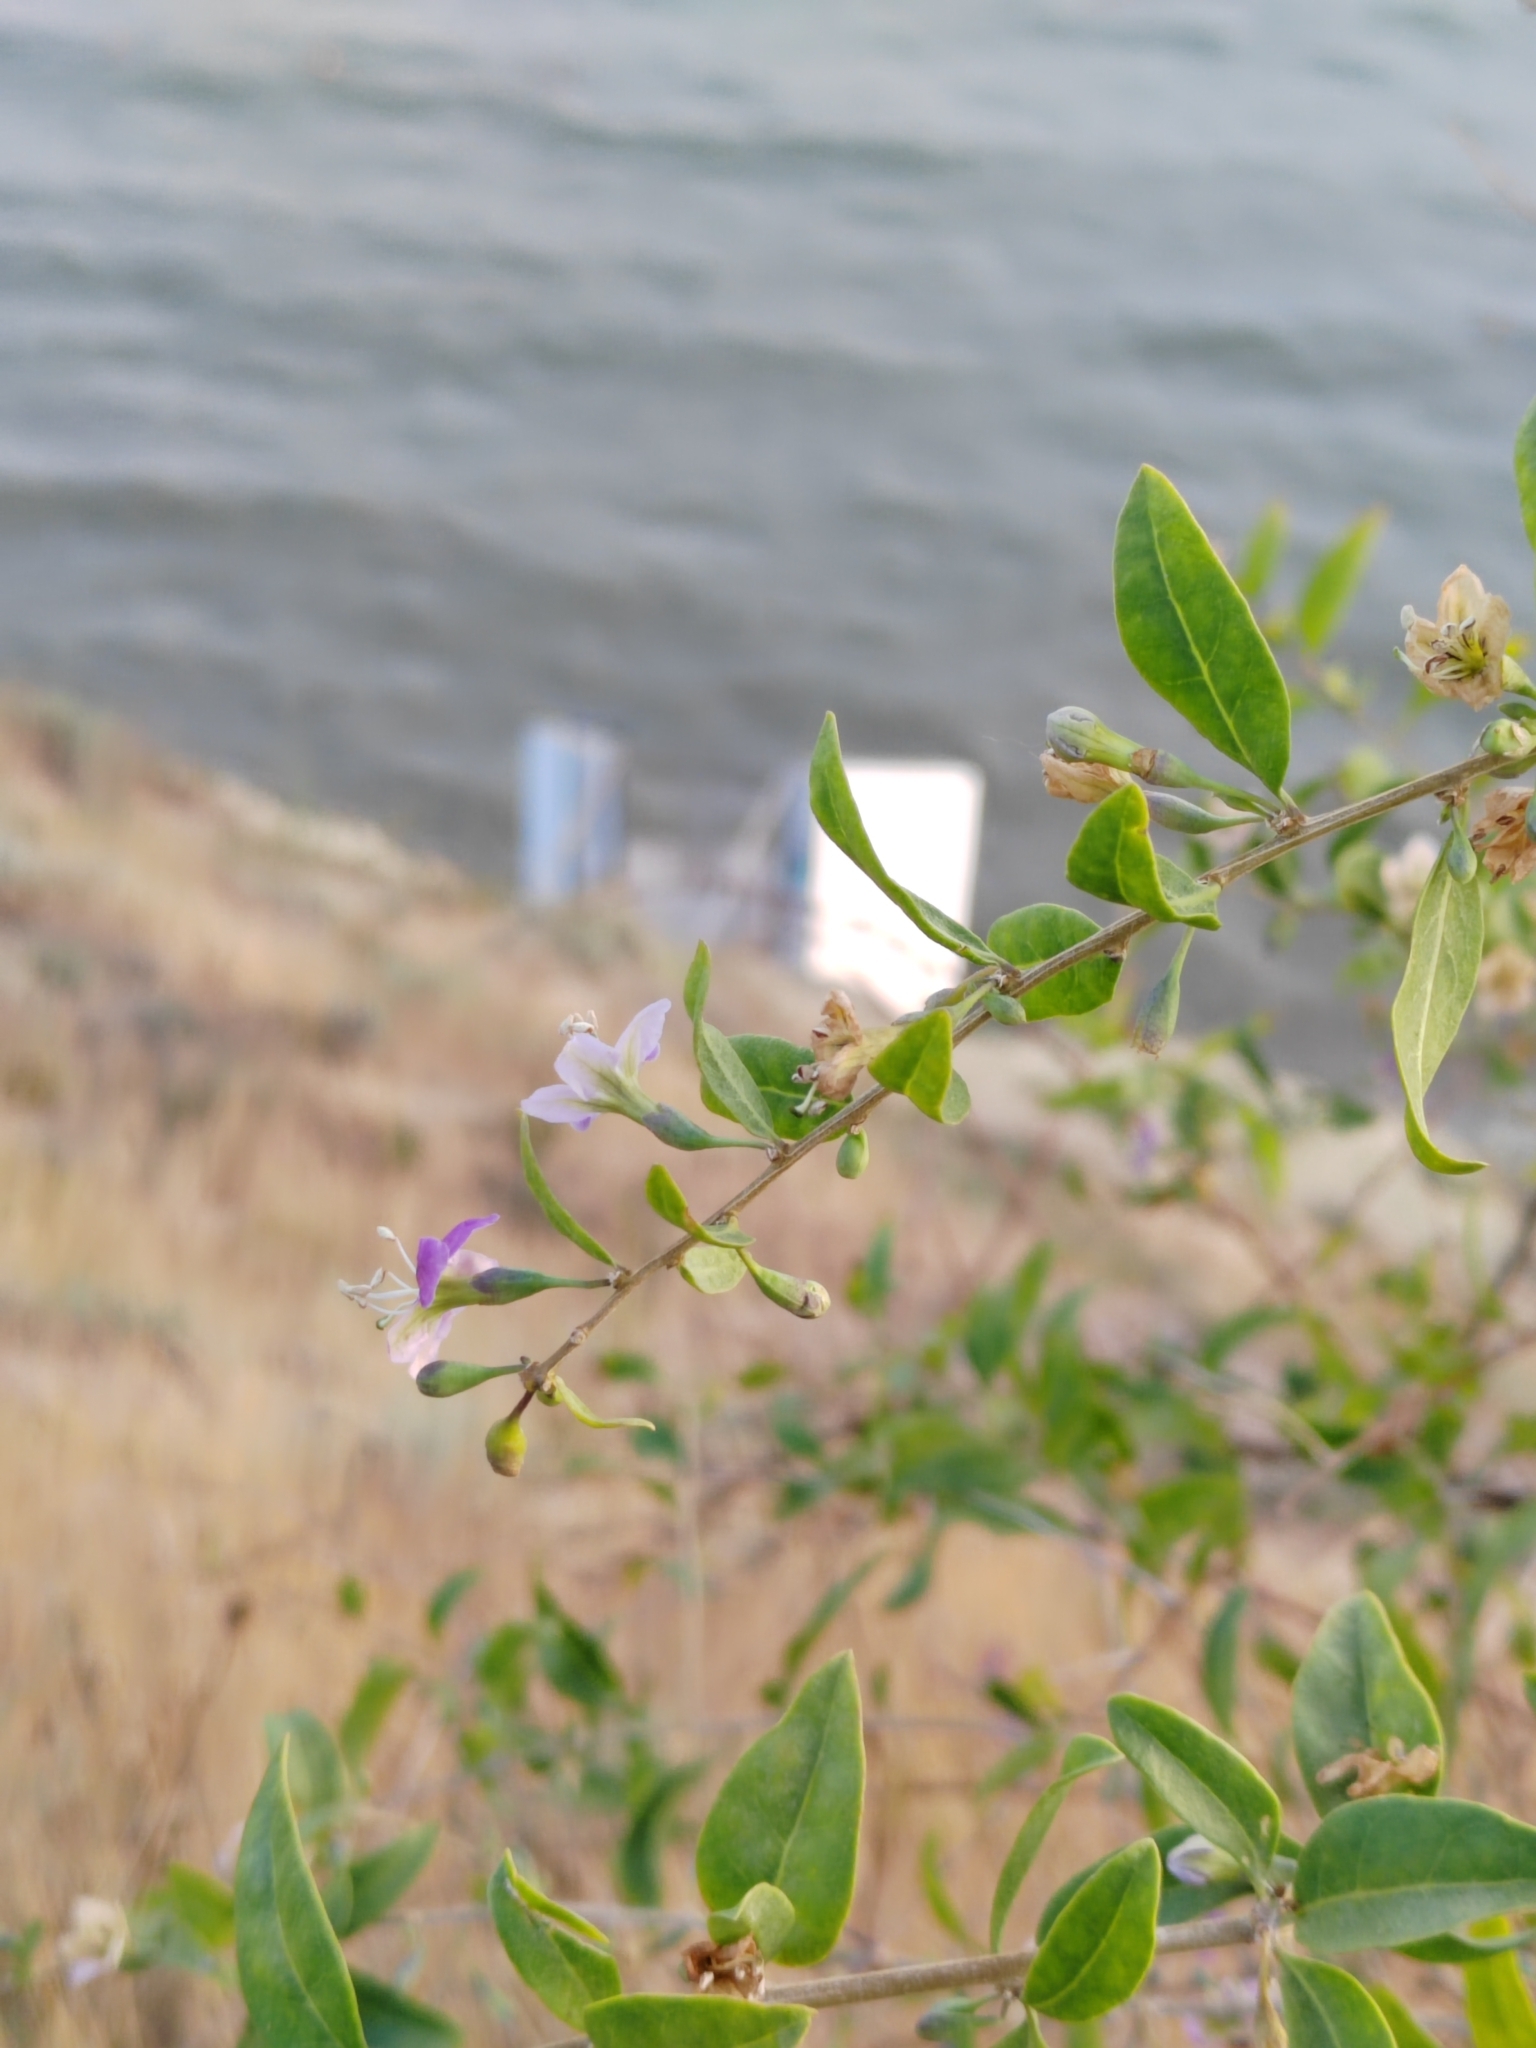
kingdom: Plantae
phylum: Tracheophyta
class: Magnoliopsida
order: Solanales
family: Solanaceae
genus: Lycium
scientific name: Lycium barbarum
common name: Duke of argyll's teaplant
